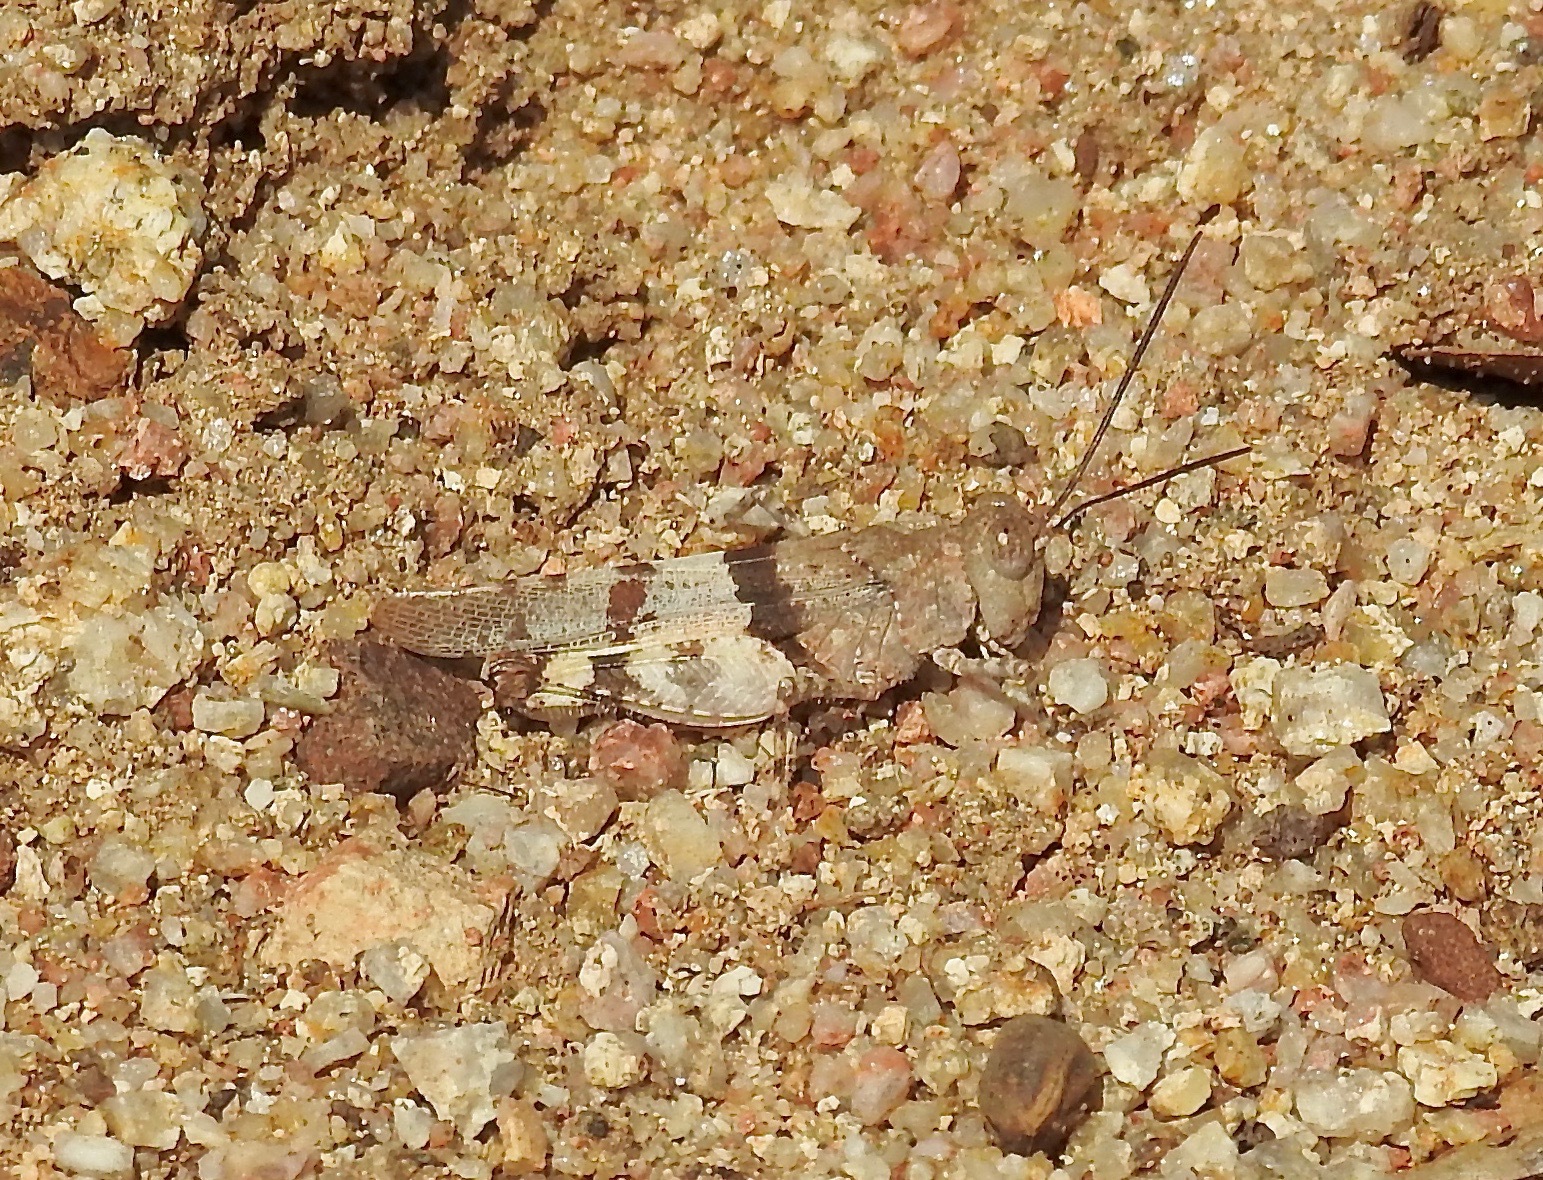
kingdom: Animalia
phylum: Arthropoda
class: Insecta
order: Orthoptera
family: Acrididae
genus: Heliastus
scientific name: Heliastus benjamini
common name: Arroyo grasshopper
